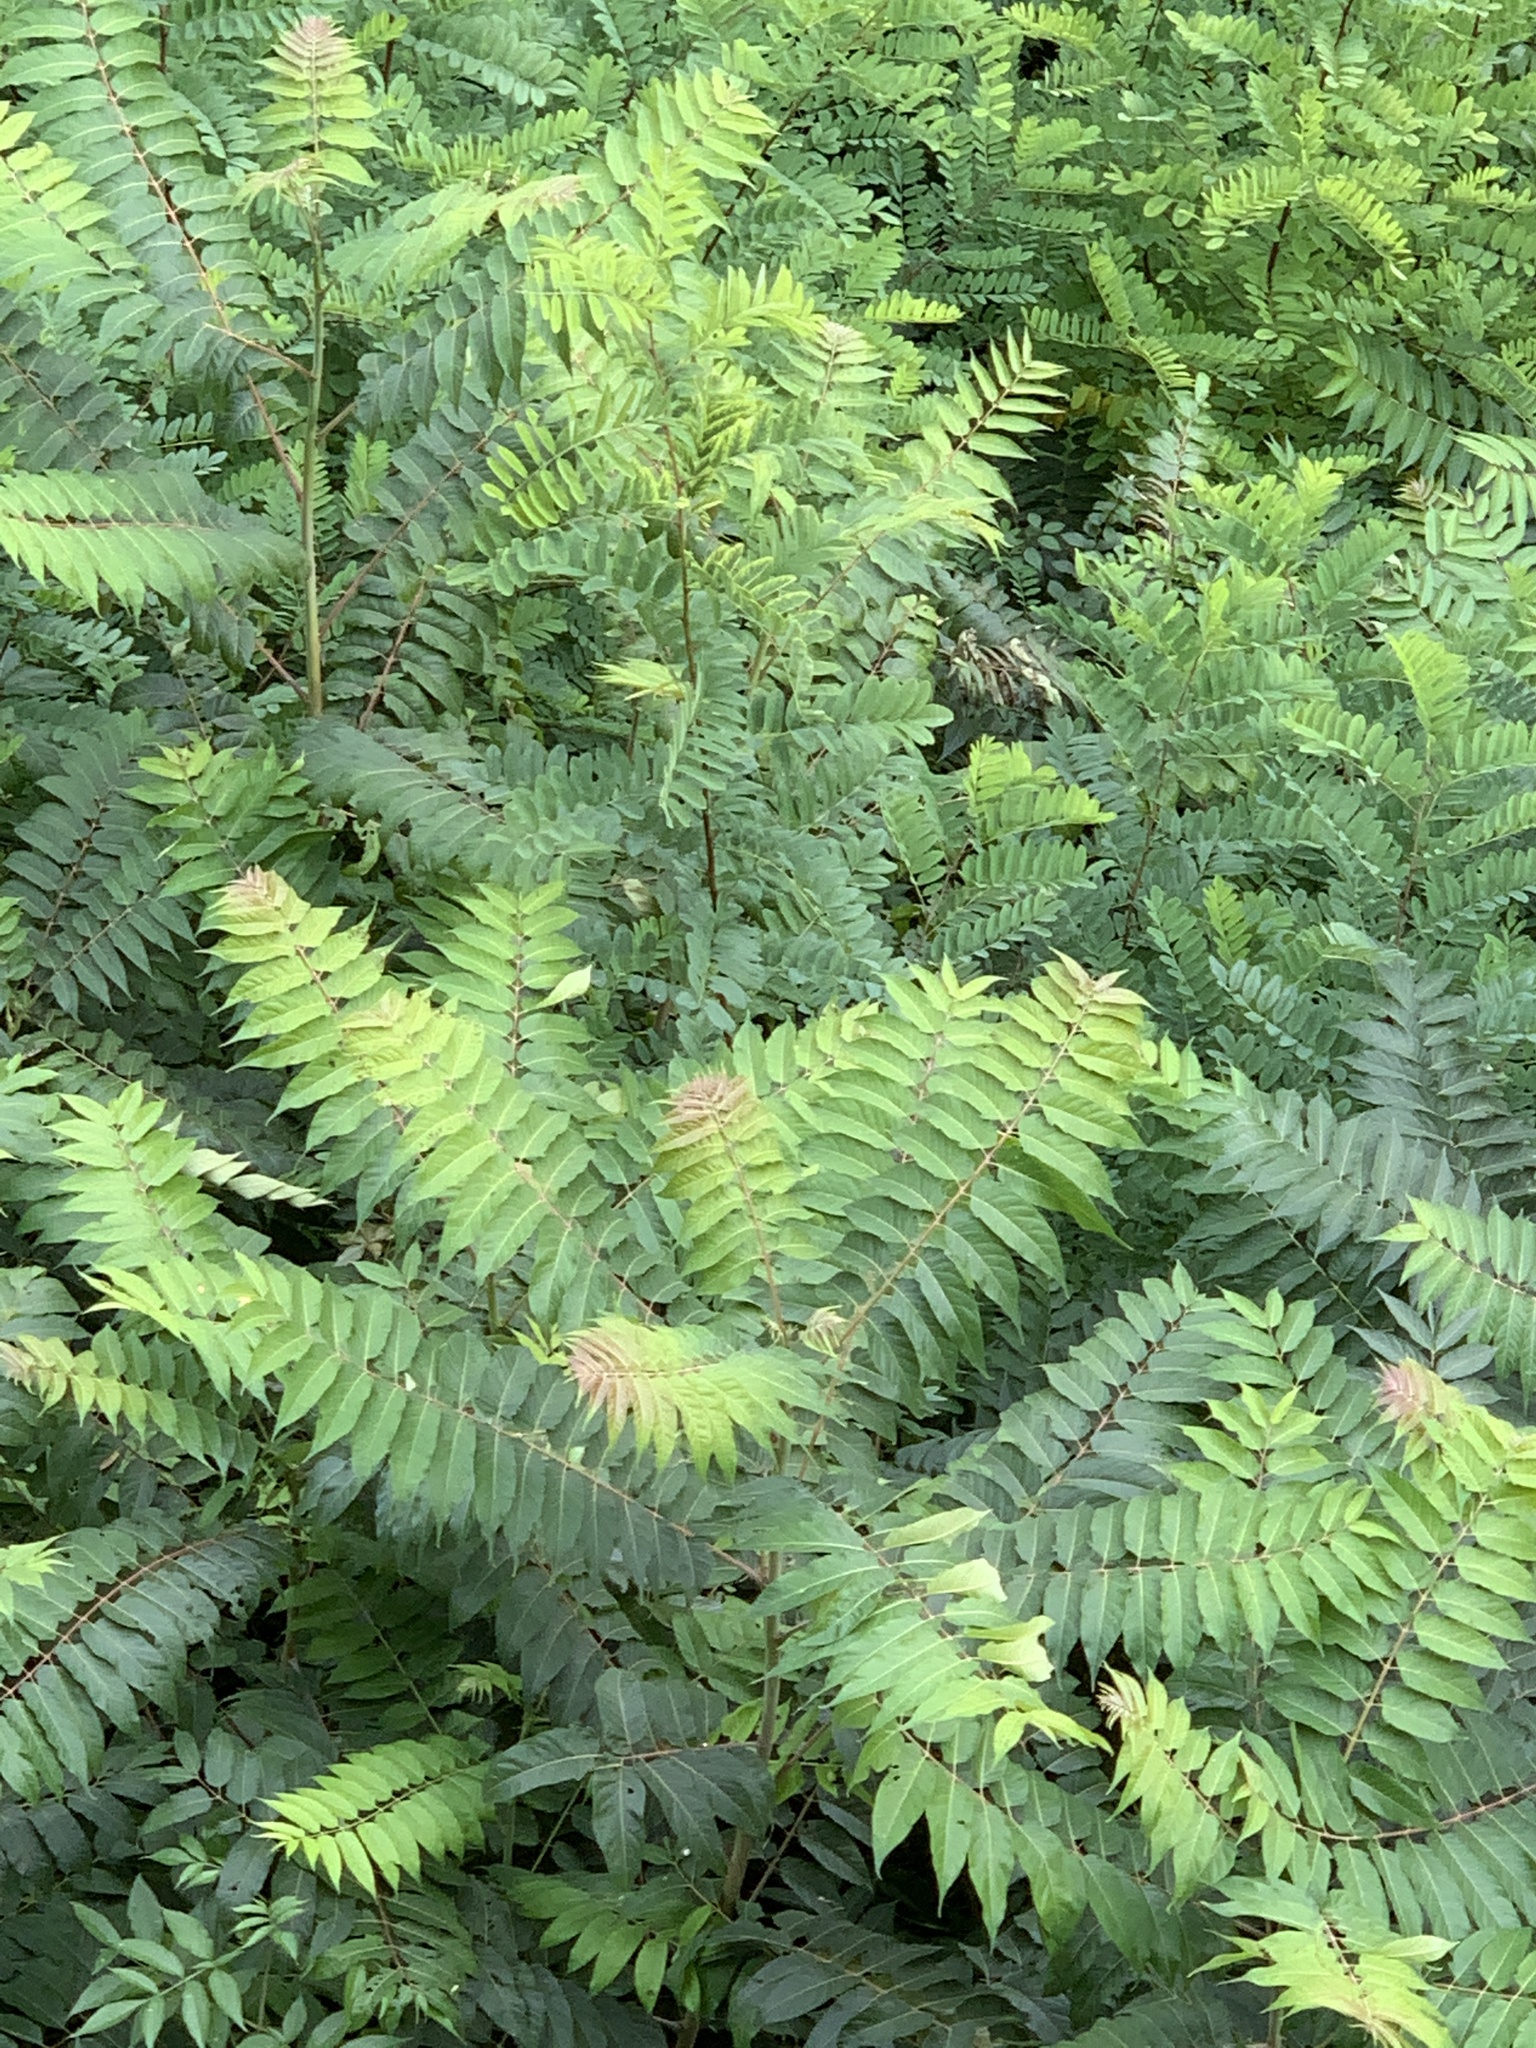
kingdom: Plantae
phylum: Tracheophyta
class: Magnoliopsida
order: Sapindales
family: Simaroubaceae
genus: Ailanthus
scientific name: Ailanthus altissima
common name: Tree-of-heaven
